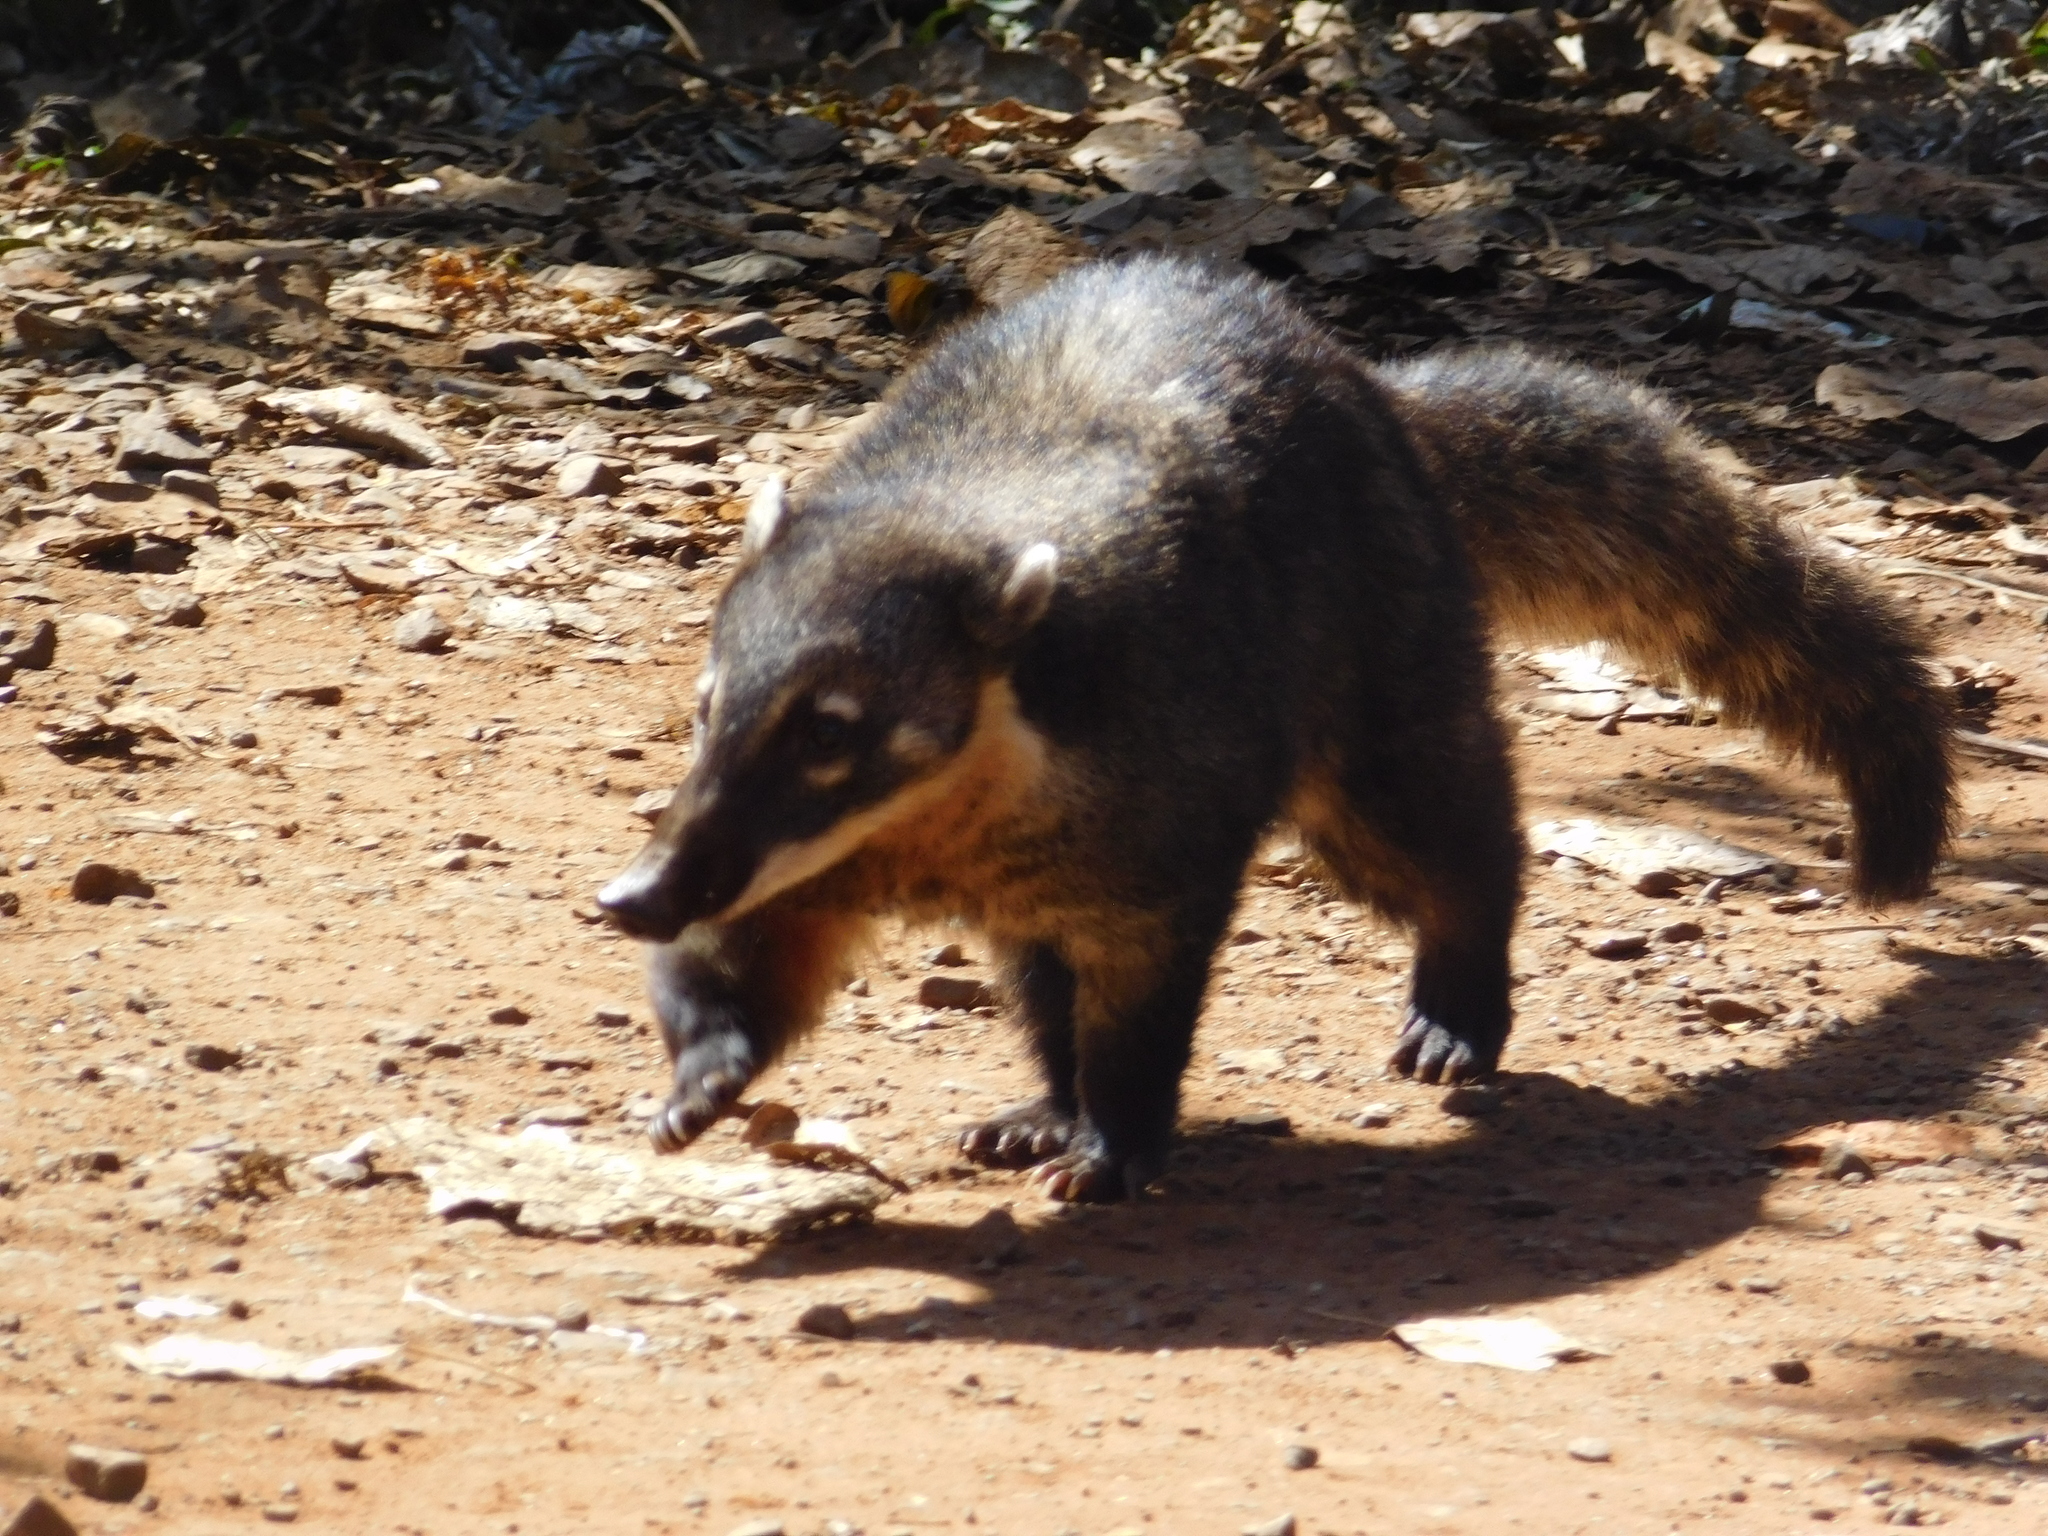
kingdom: Animalia
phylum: Chordata
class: Mammalia
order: Carnivora
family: Procyonidae
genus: Nasua
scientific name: Nasua nasua
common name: South american coati
